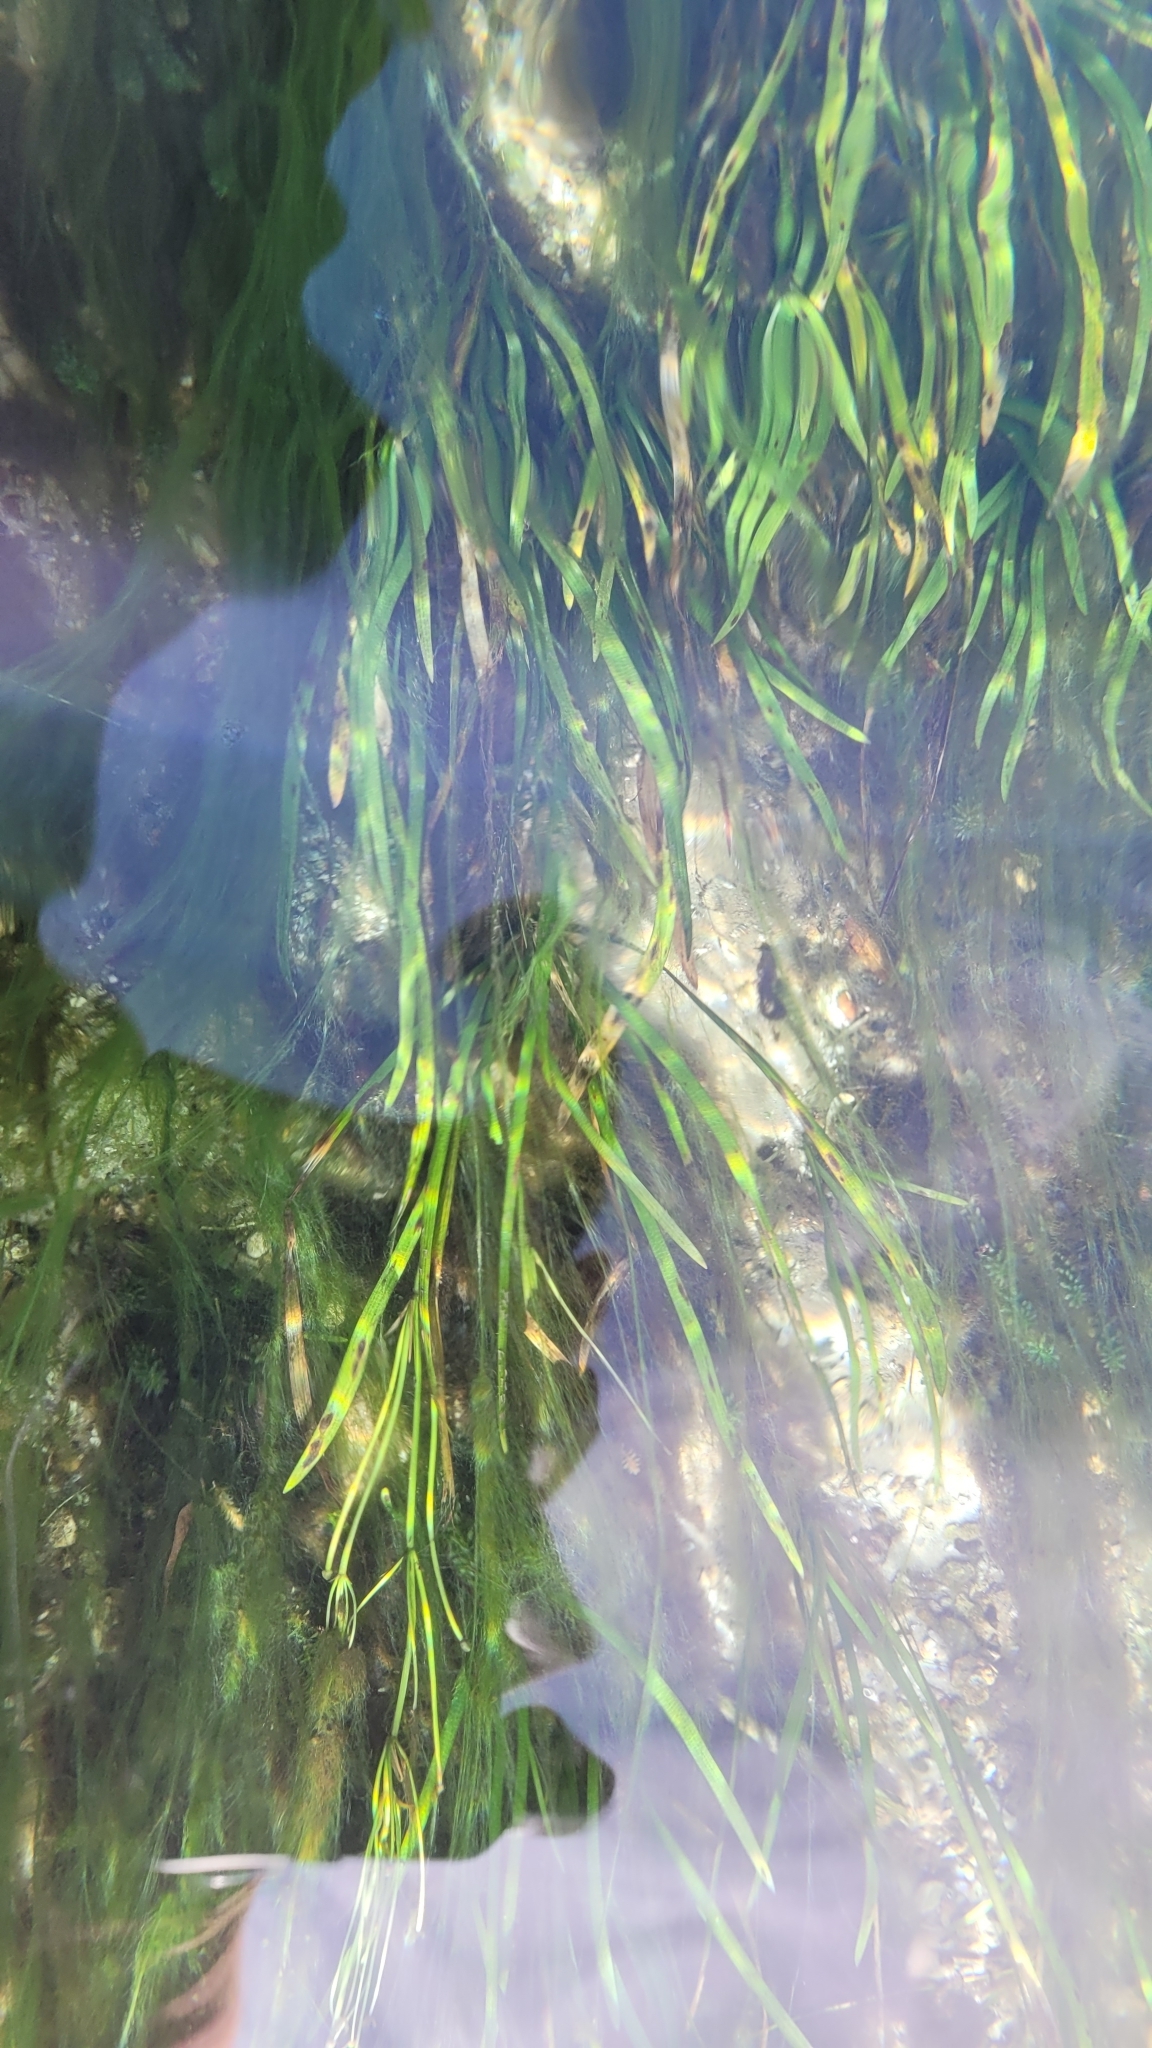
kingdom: Plantae
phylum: Tracheophyta
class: Liliopsida
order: Alismatales
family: Alismataceae
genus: Sagittaria
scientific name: Sagittaria kurziana
